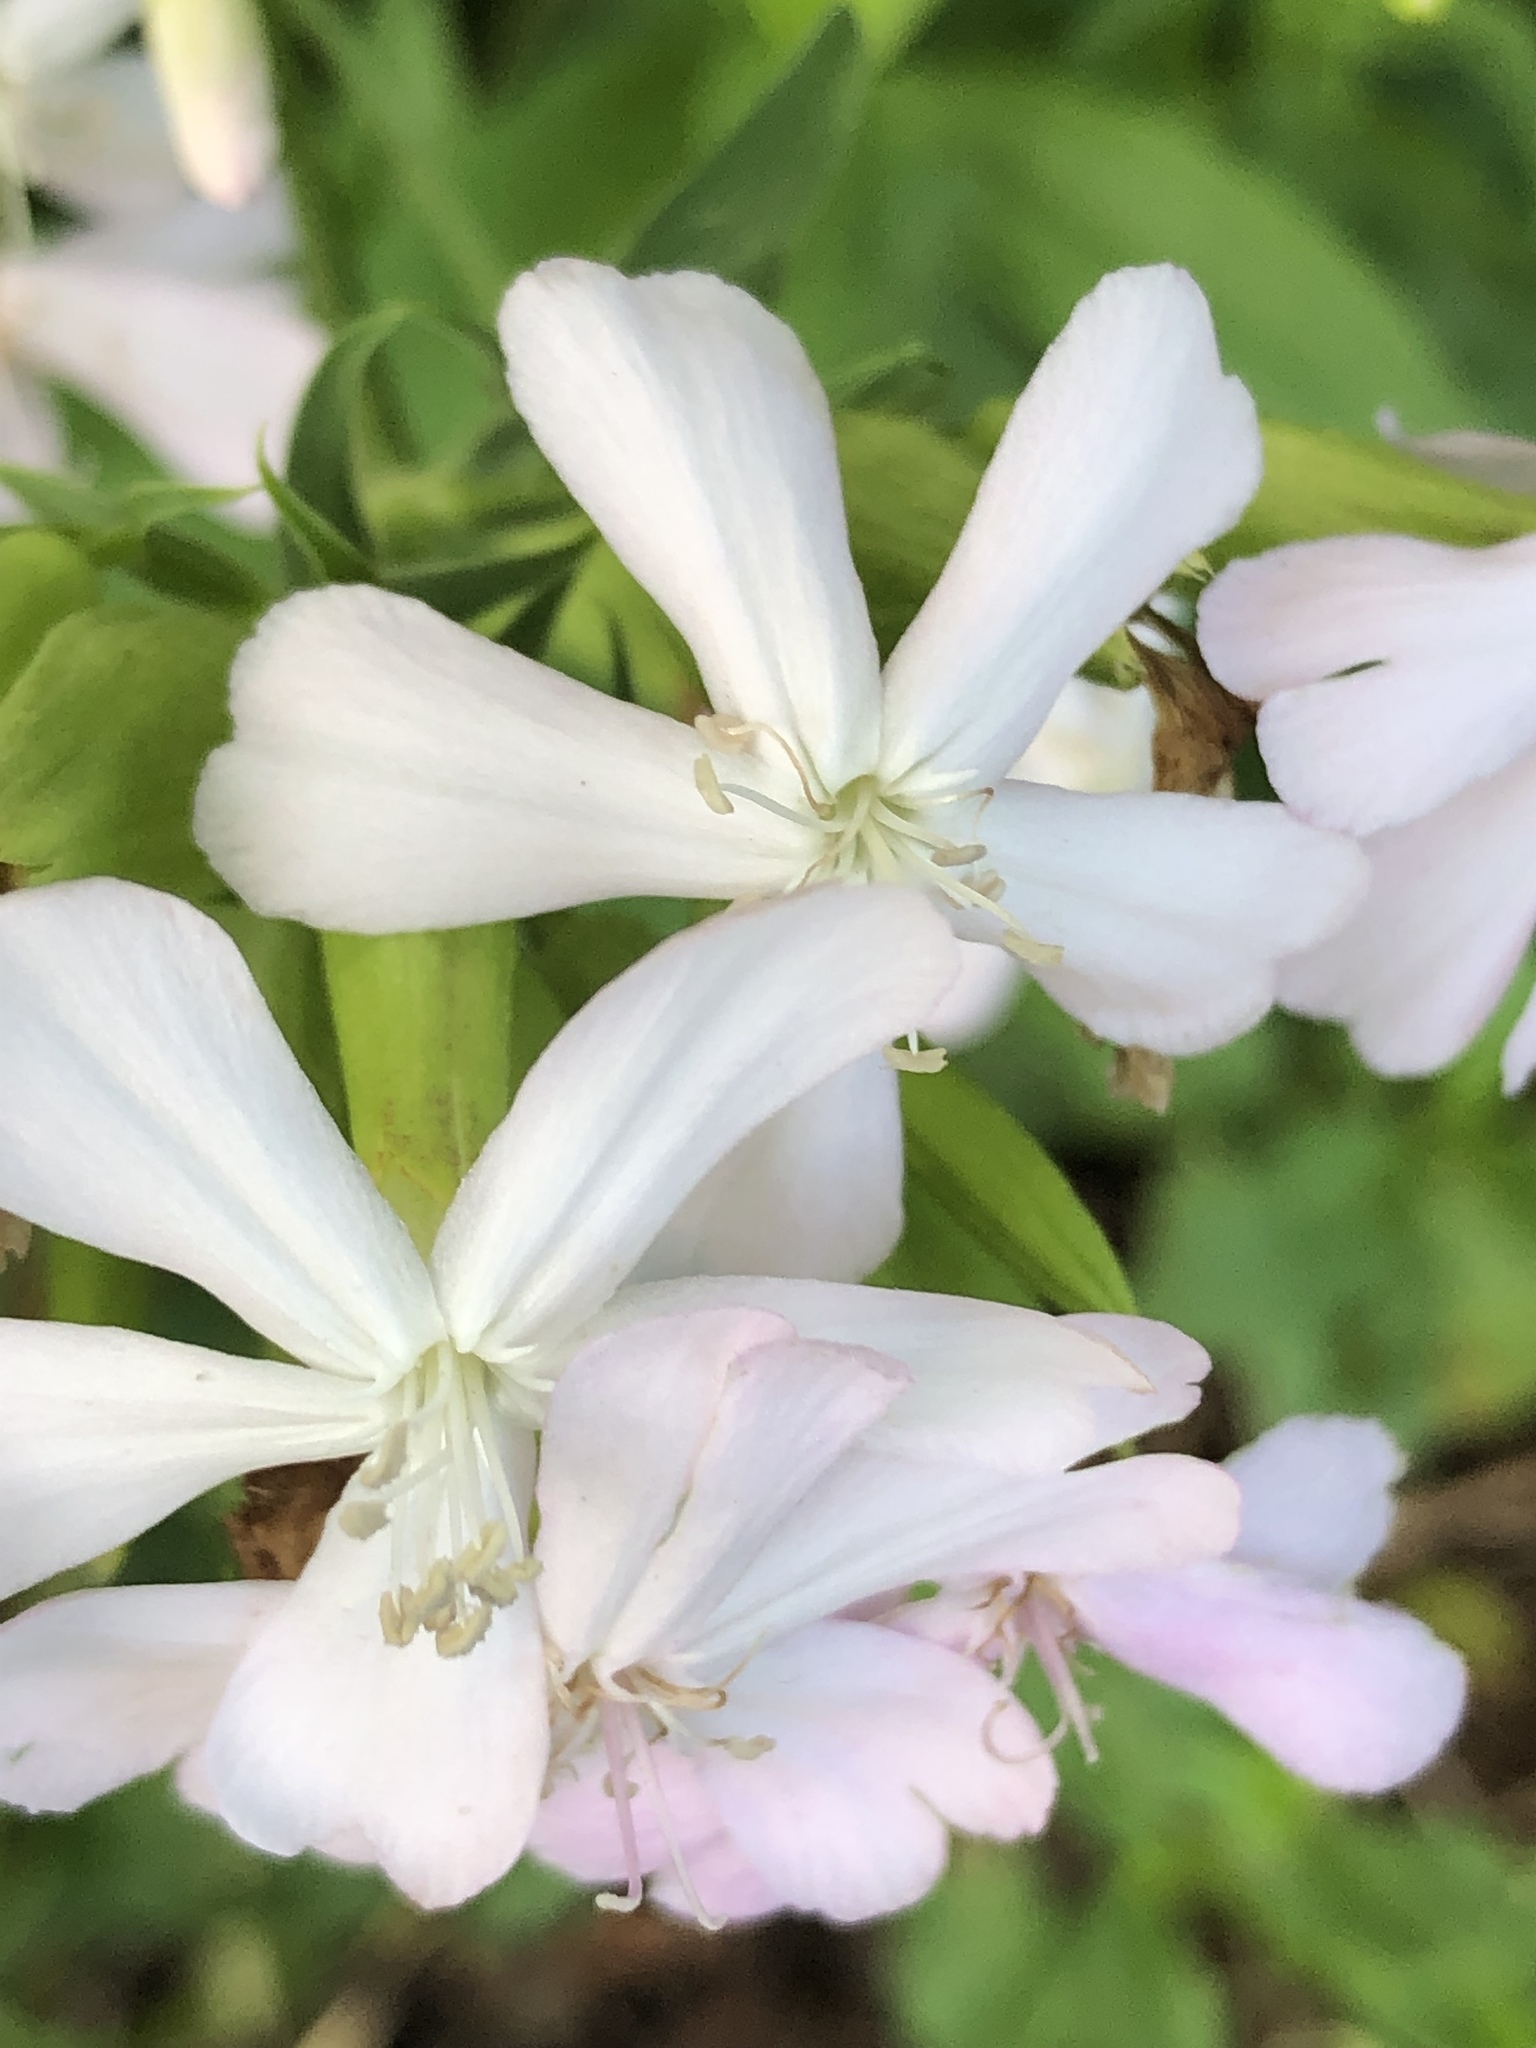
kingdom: Plantae
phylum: Tracheophyta
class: Magnoliopsida
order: Caryophyllales
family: Caryophyllaceae
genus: Saponaria
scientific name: Saponaria officinalis
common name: Soapwort
